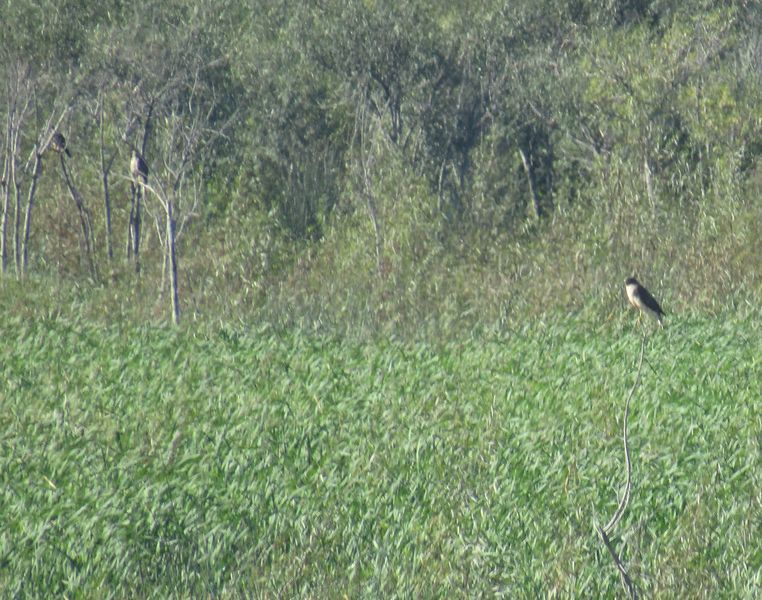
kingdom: Animalia
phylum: Chordata
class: Aves
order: Accipitriformes
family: Accipitridae
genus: Rupornis
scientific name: Rupornis magnirostris
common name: Roadside hawk
